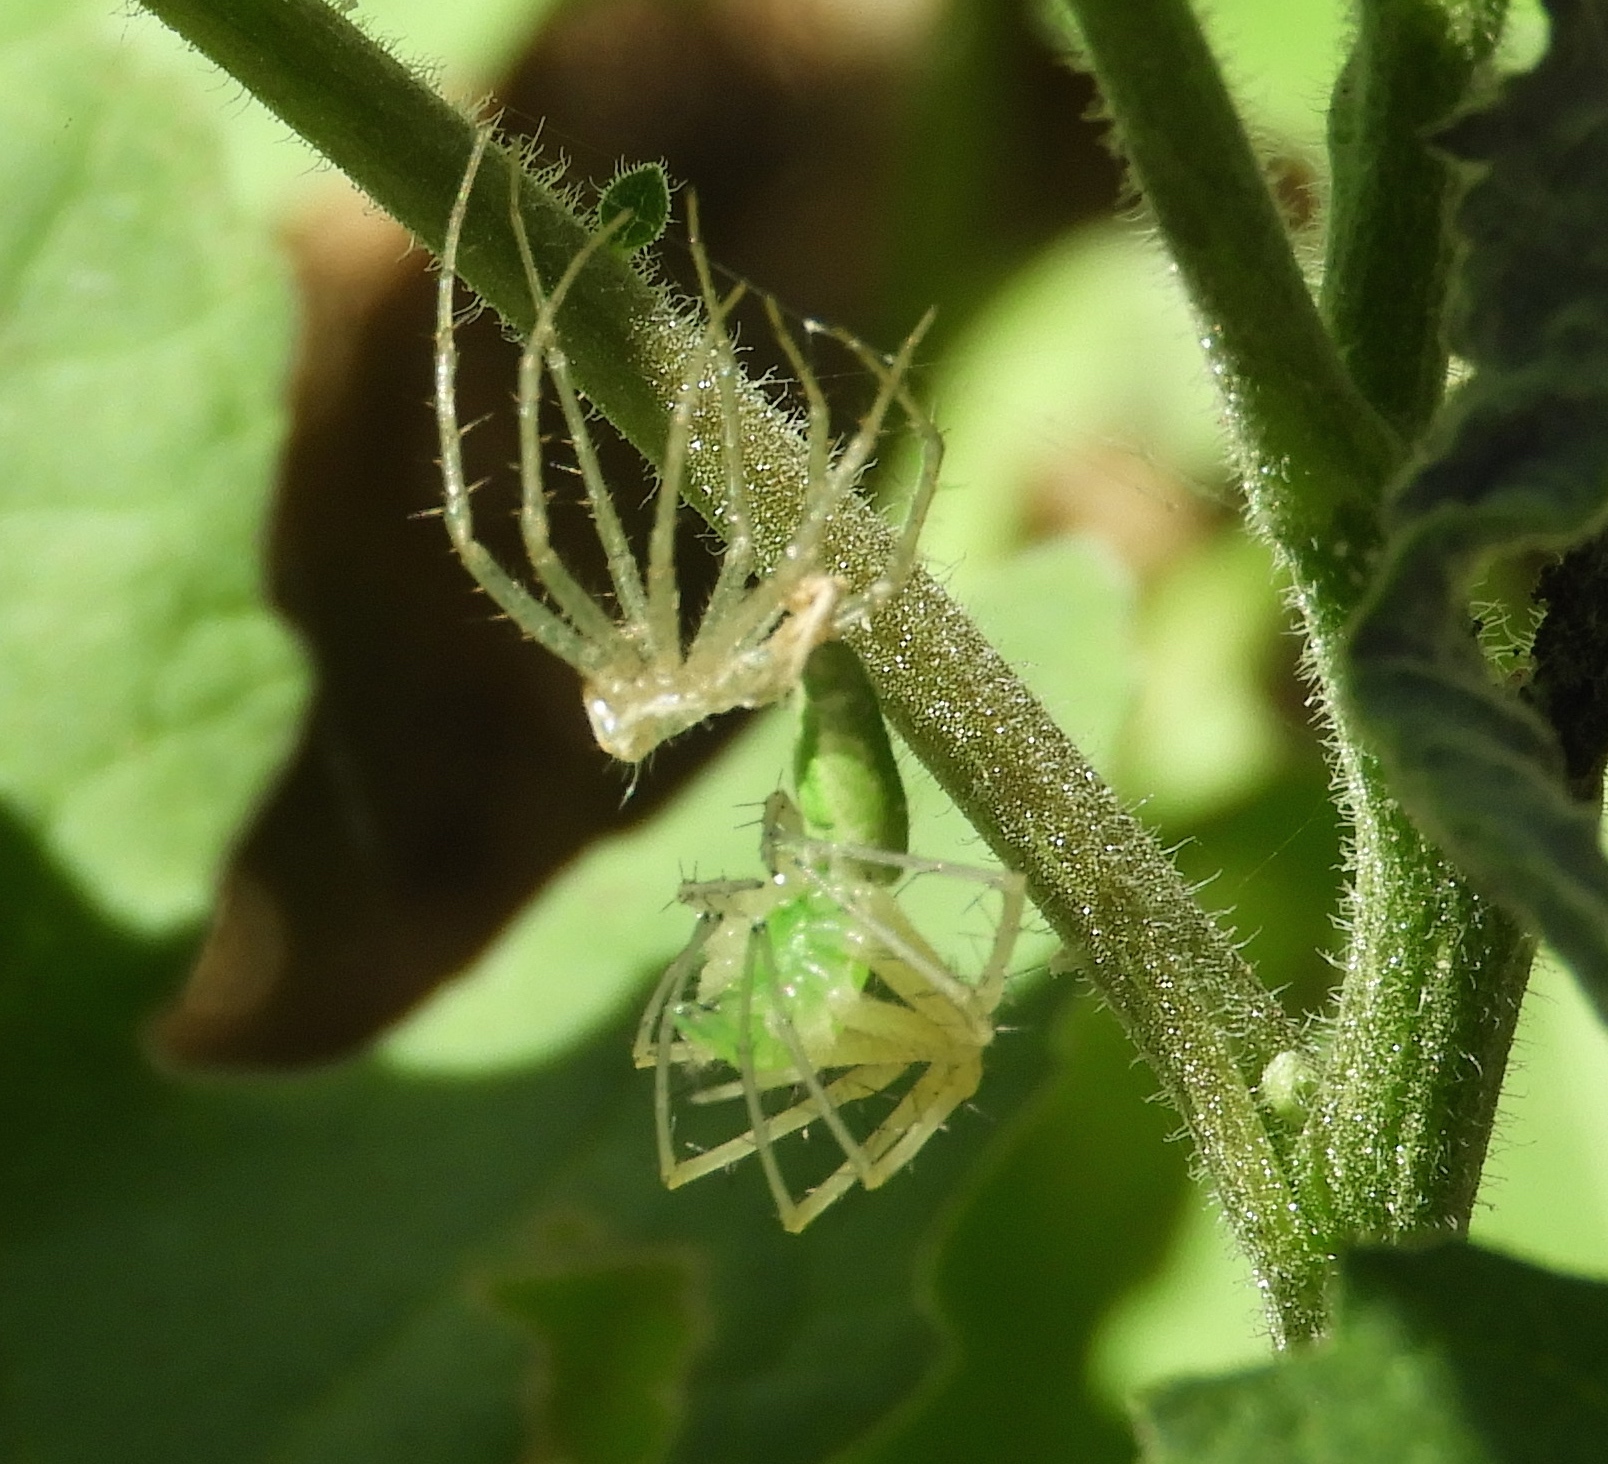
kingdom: Animalia
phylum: Arthropoda
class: Arachnida
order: Araneae
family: Oxyopidae
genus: Peucetia
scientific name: Peucetia
